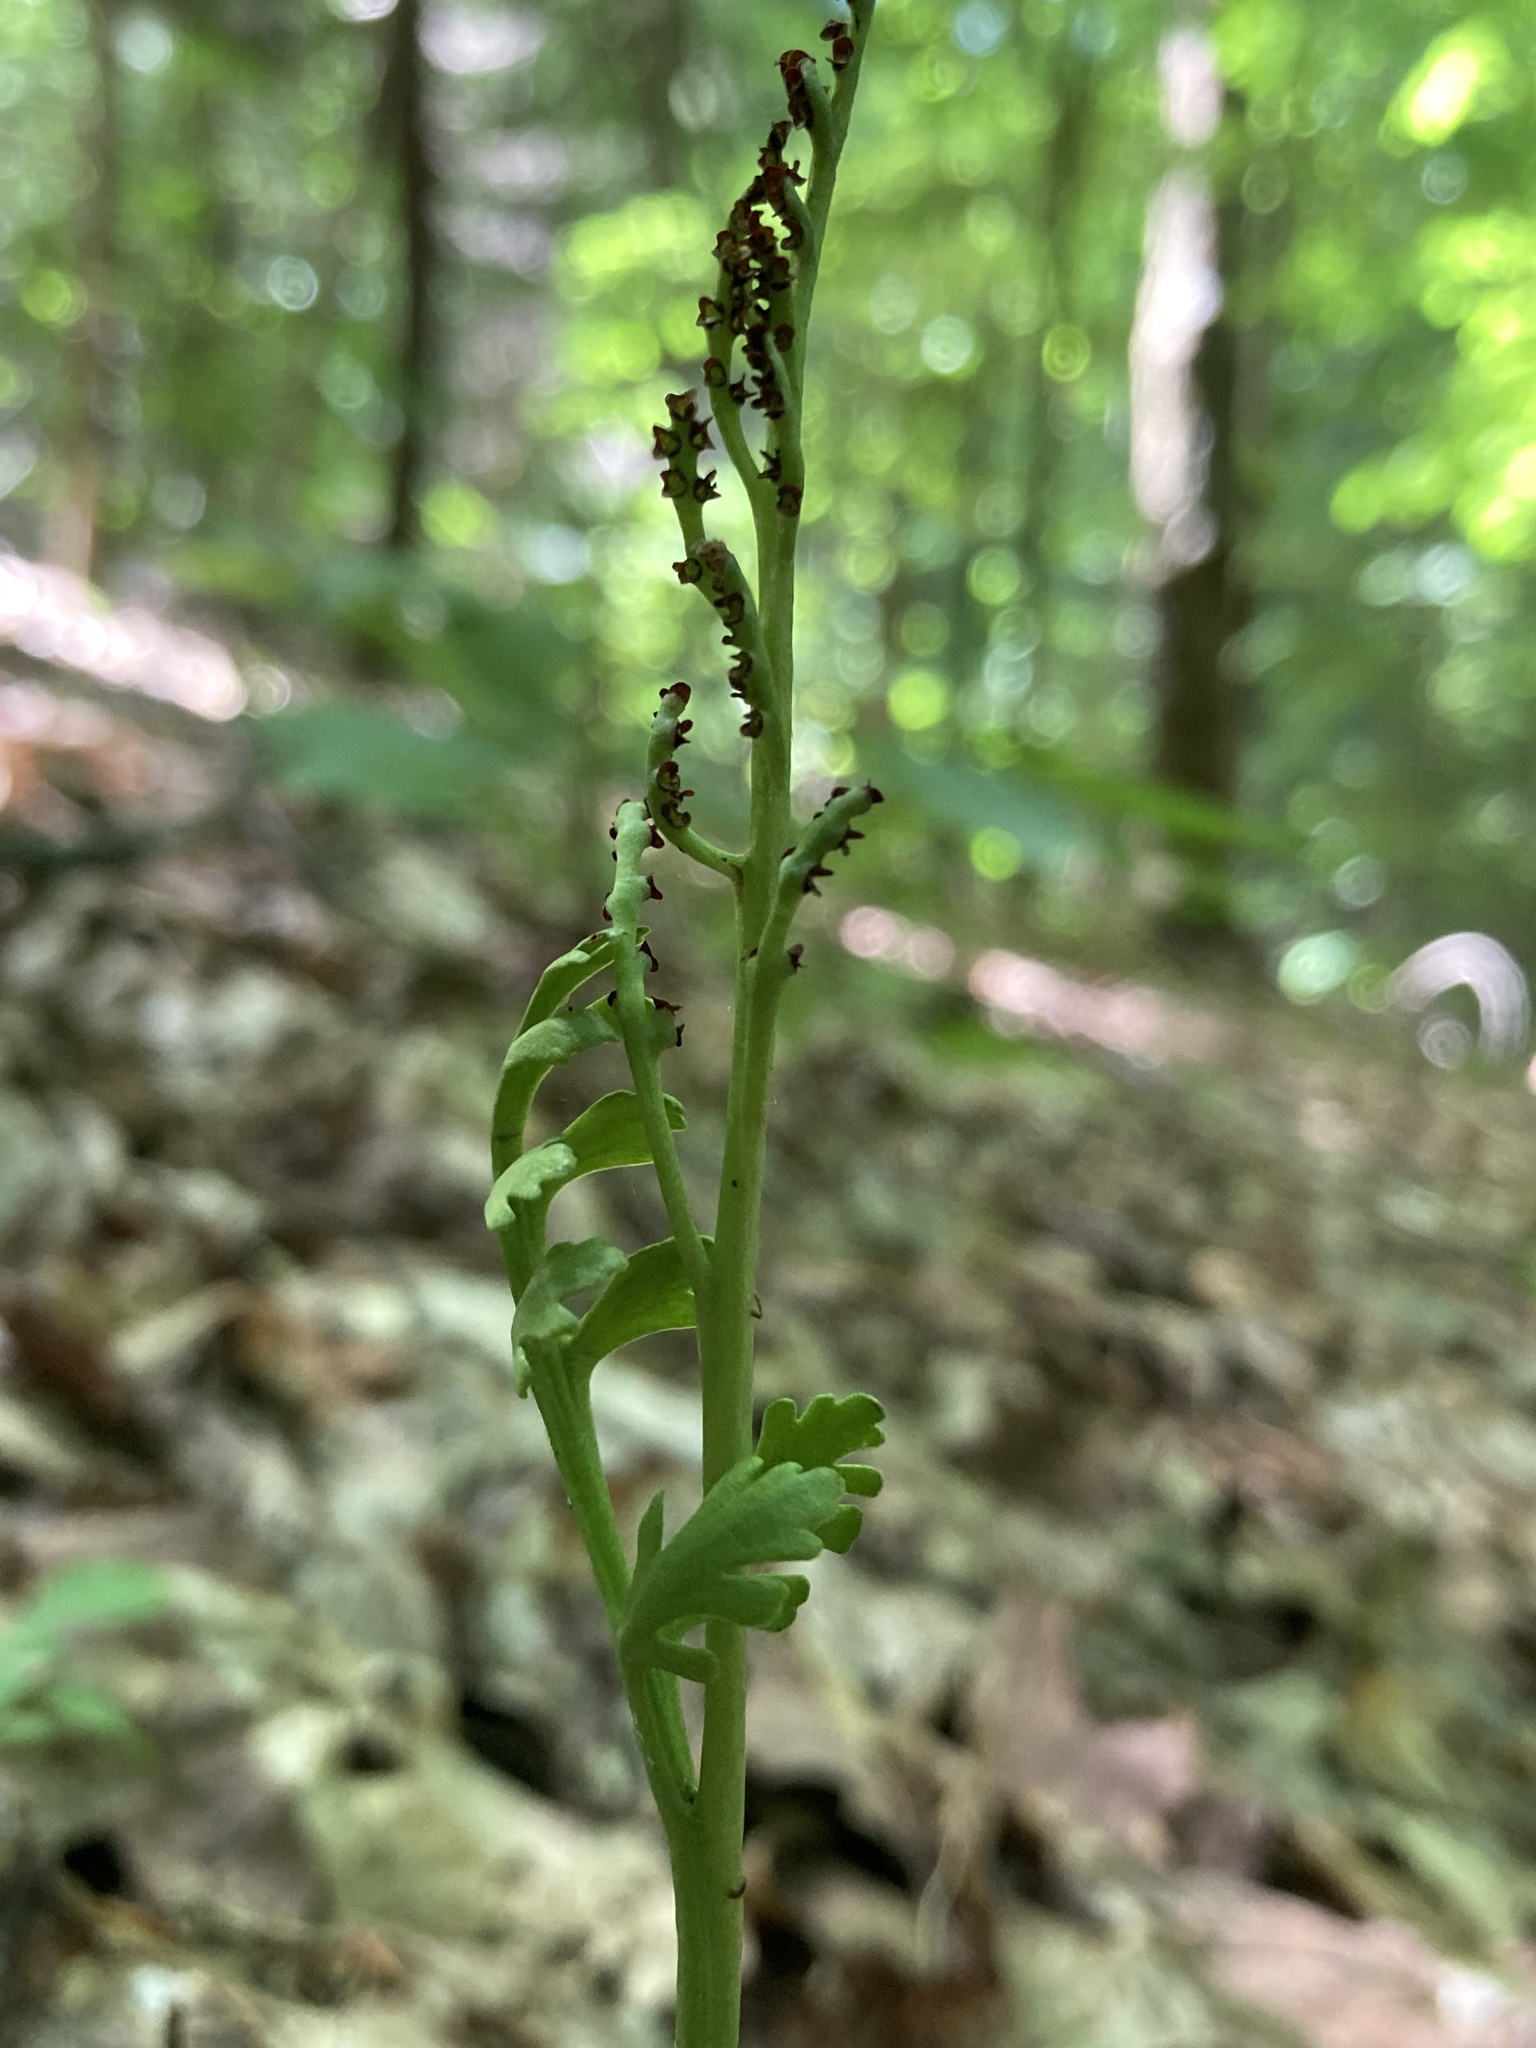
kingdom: Plantae
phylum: Tracheophyta
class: Polypodiopsida
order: Ophioglossales
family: Ophioglossaceae
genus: Botrychium
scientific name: Botrychium matricariifolium
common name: Branched moonwort
